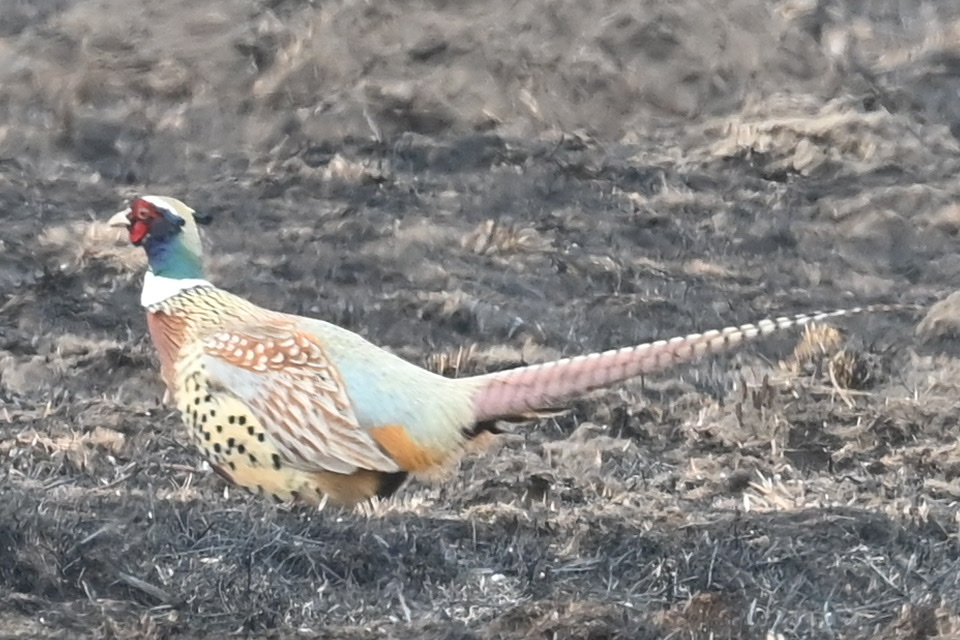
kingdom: Animalia
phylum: Chordata
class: Aves
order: Galliformes
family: Phasianidae
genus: Phasianus
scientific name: Phasianus colchicus
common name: Common pheasant
